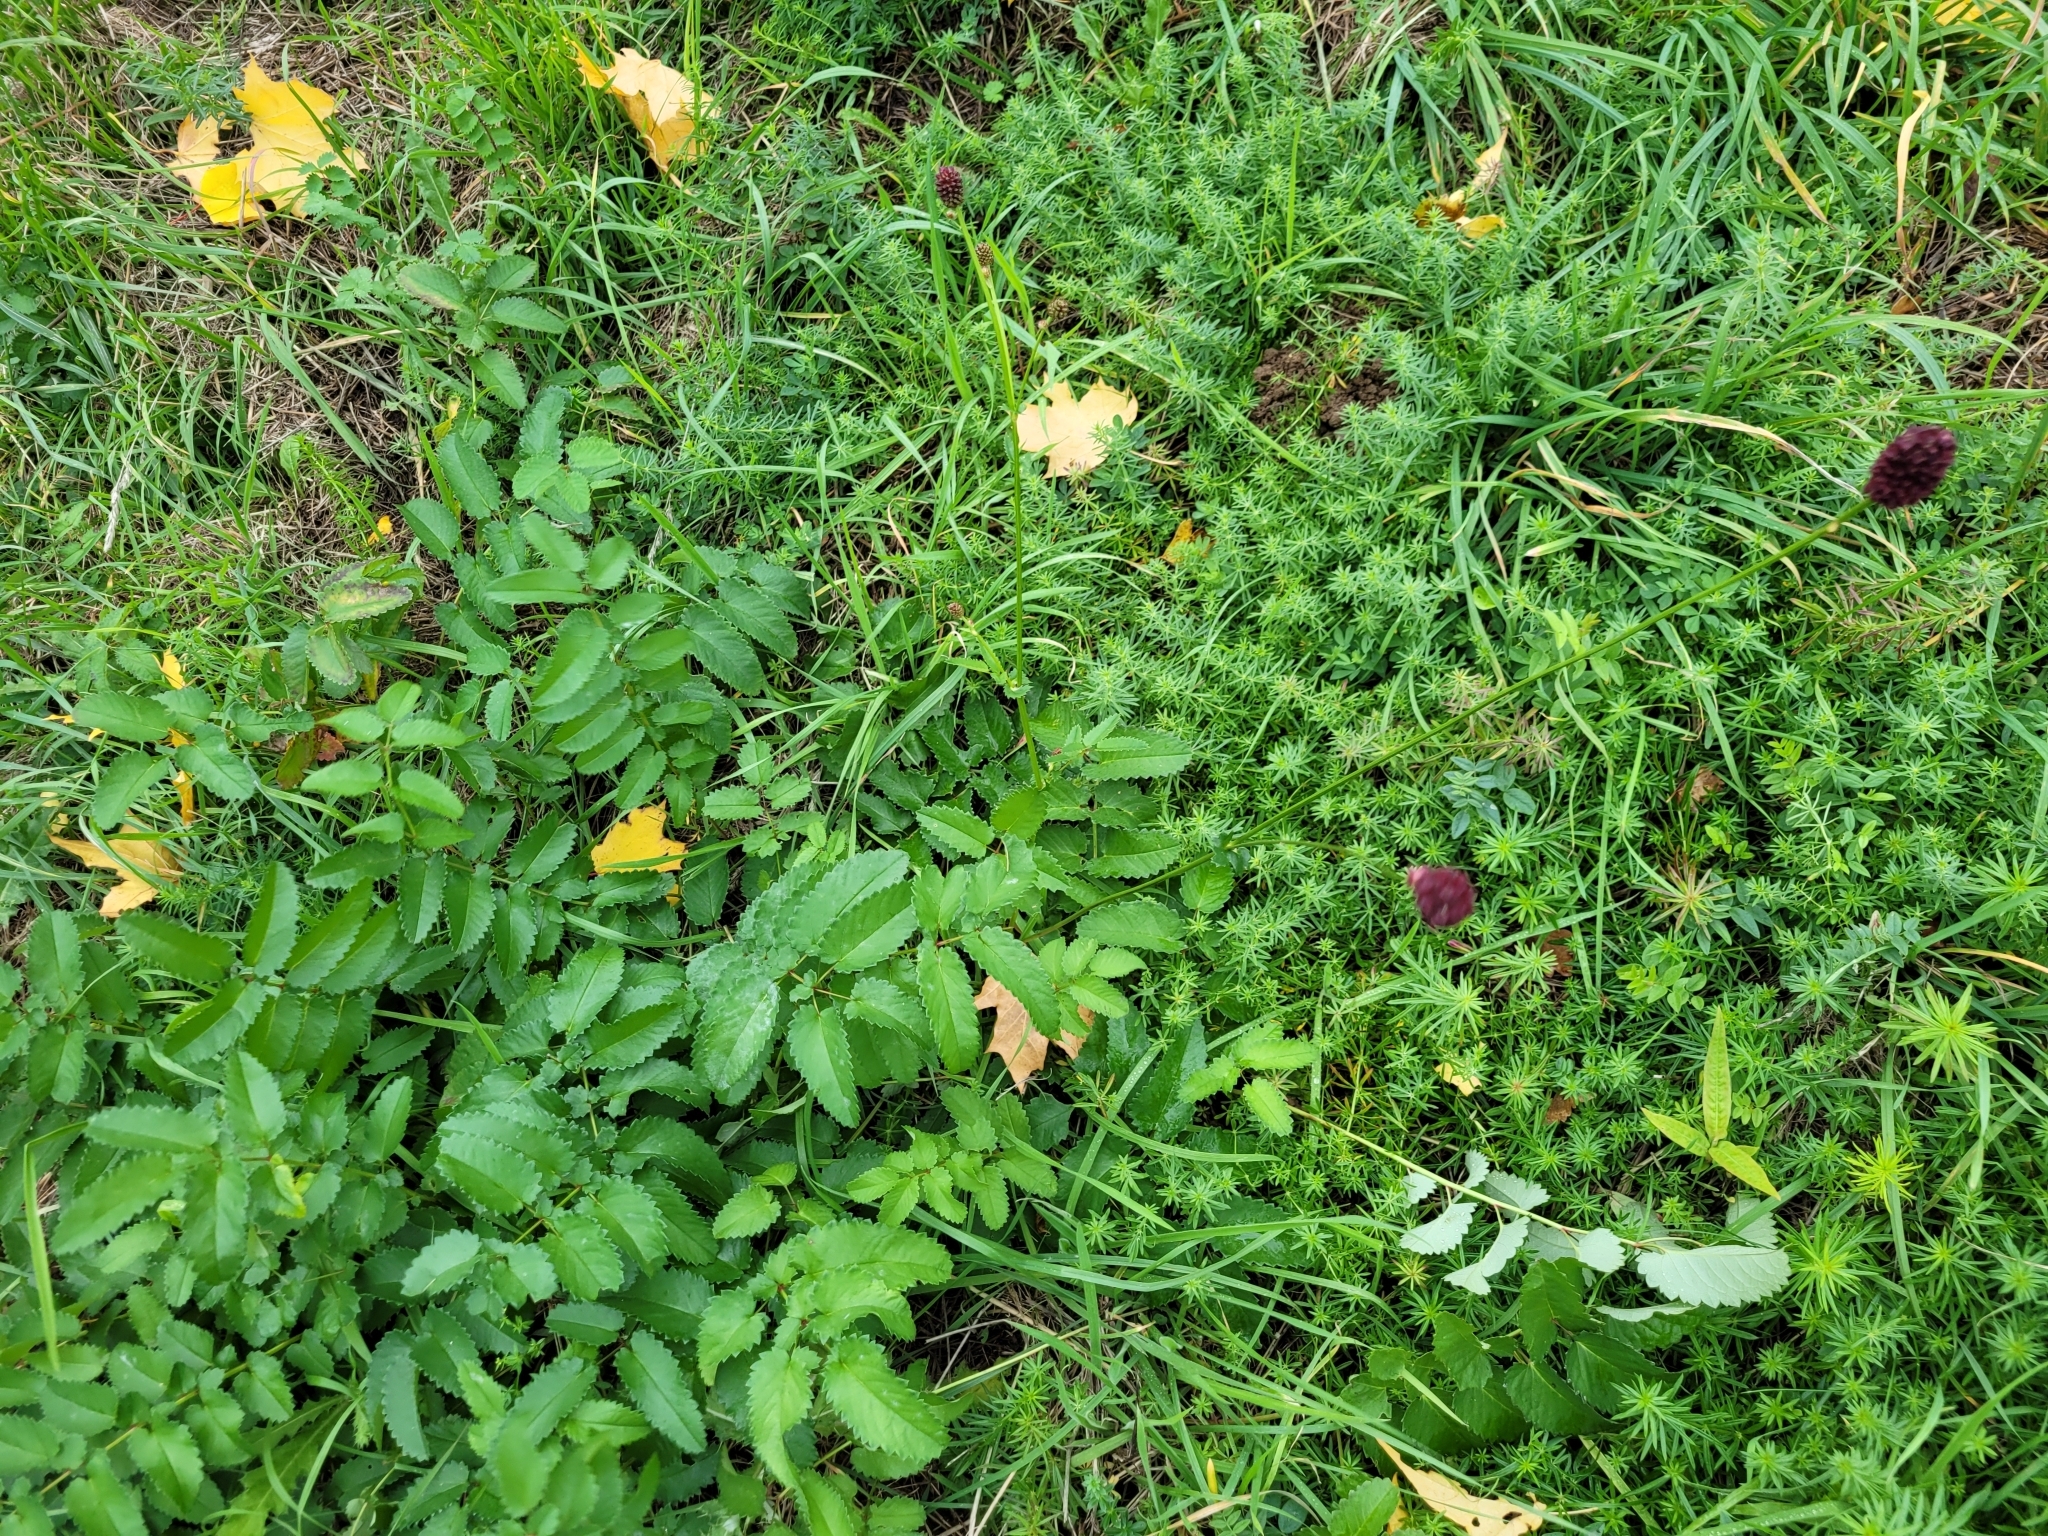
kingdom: Plantae
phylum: Tracheophyta
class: Magnoliopsida
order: Rosales
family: Rosaceae
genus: Sanguisorba
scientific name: Sanguisorba officinalis
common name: Great burnet
